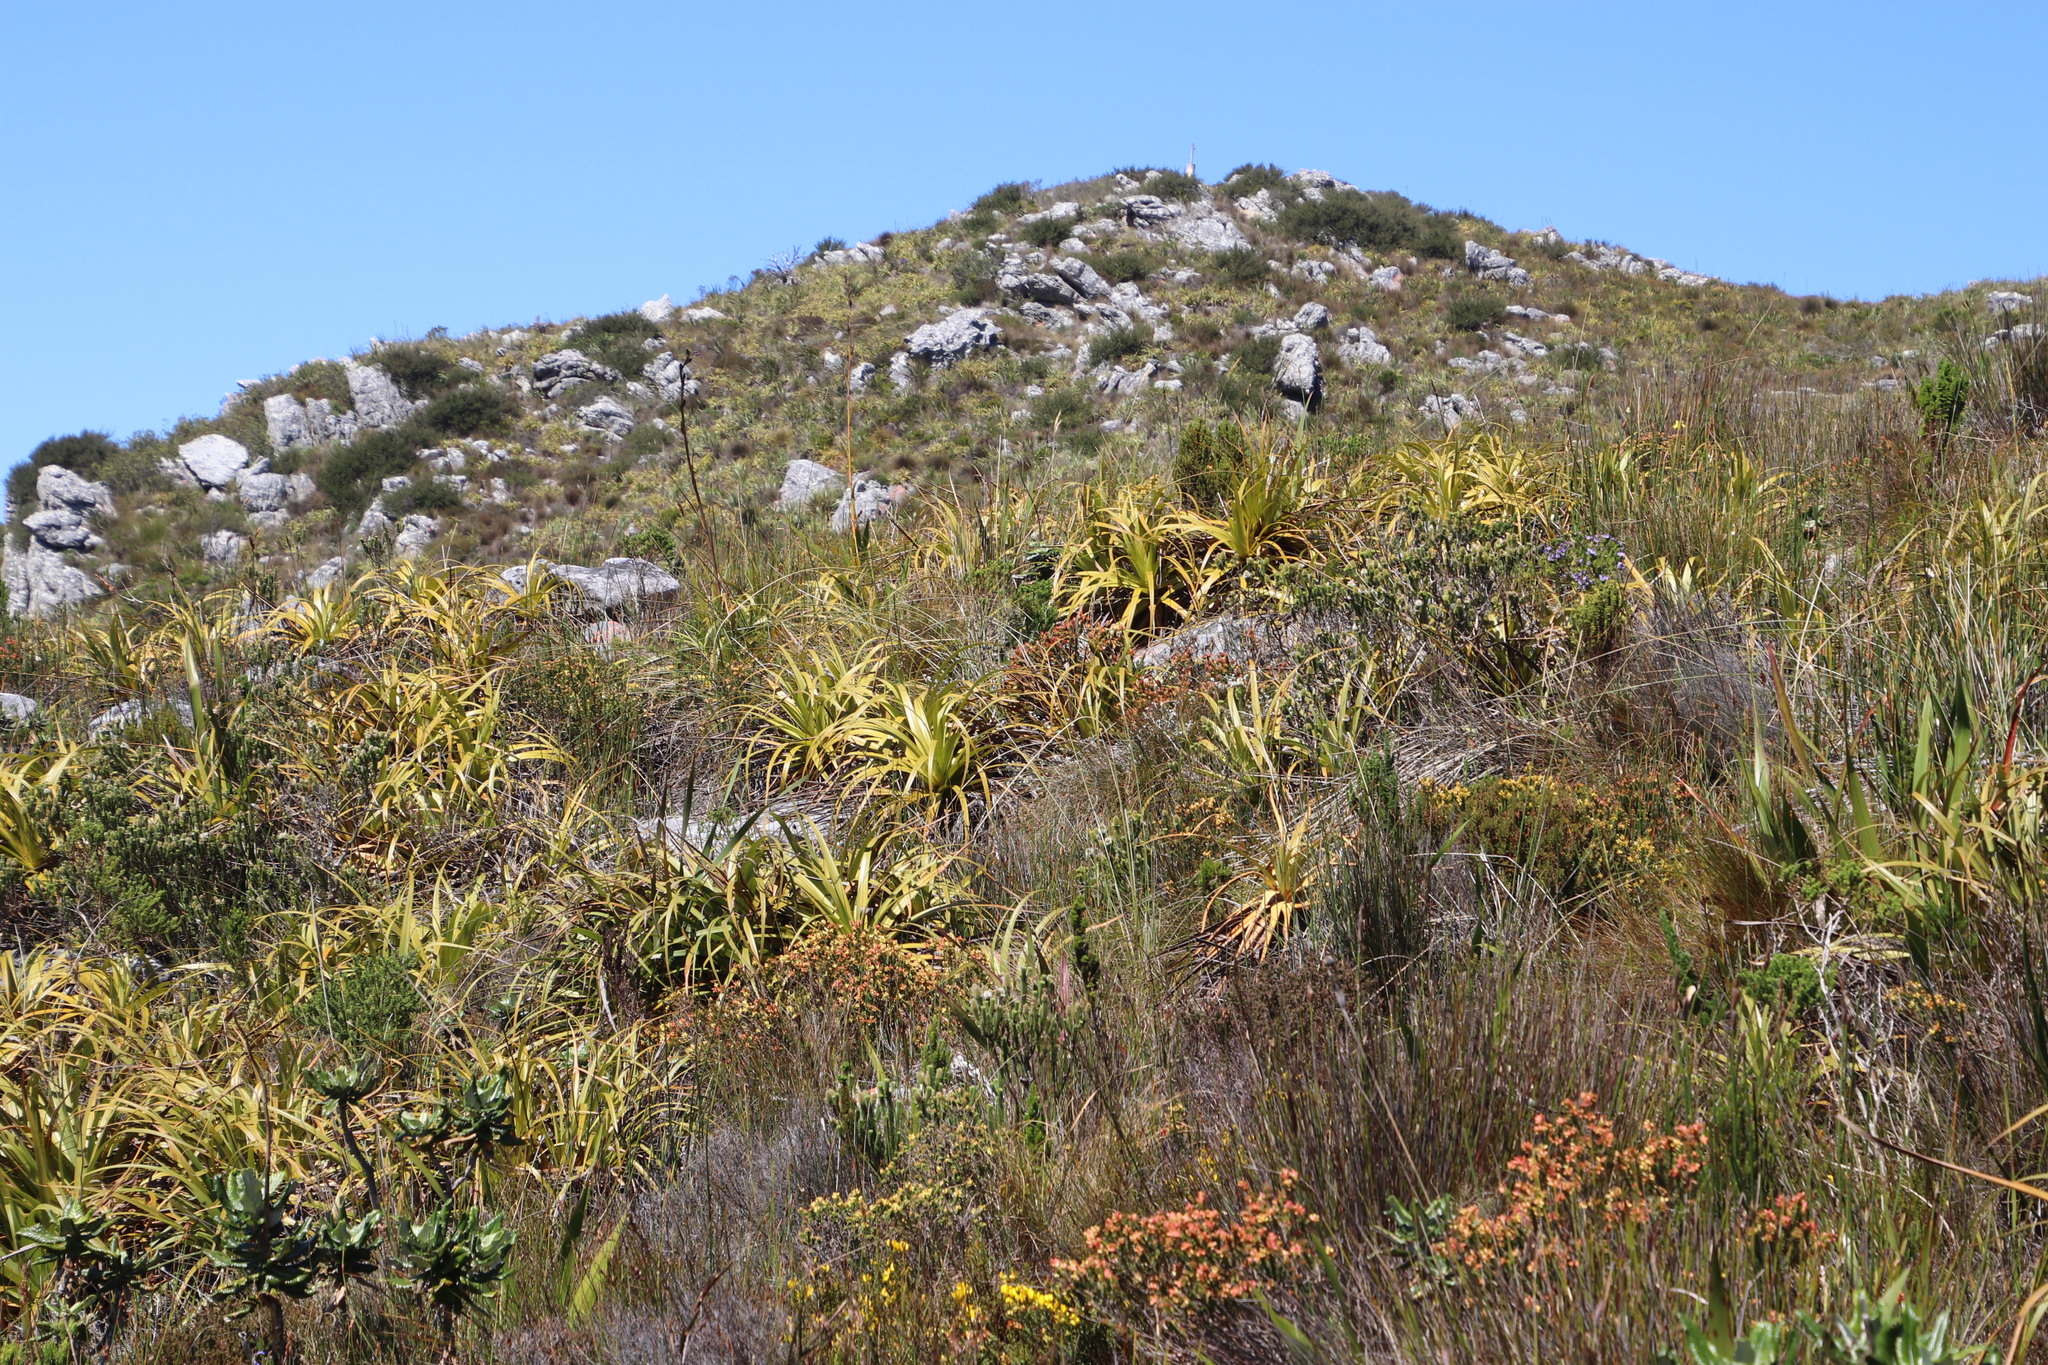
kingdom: Plantae
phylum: Tracheophyta
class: Liliopsida
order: Poales
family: Cyperaceae
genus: Tetraria
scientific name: Tetraria thermalis
